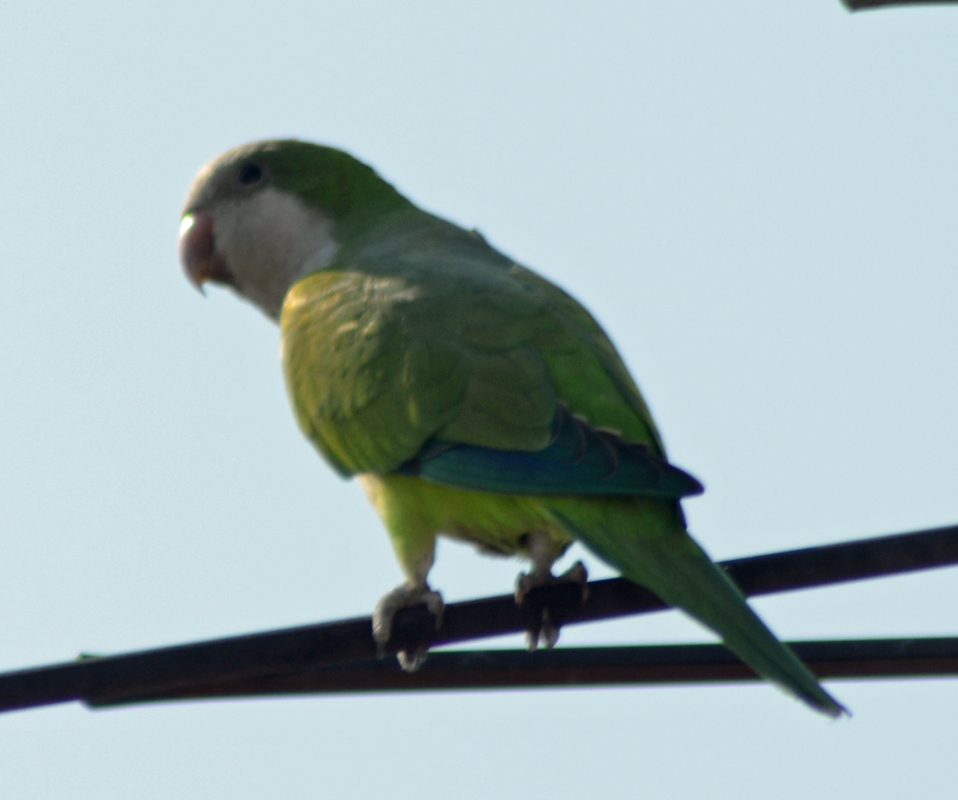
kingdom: Animalia
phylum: Chordata
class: Aves
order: Psittaciformes
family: Psittacidae
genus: Myiopsitta
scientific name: Myiopsitta monachus
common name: Monk parakeet
